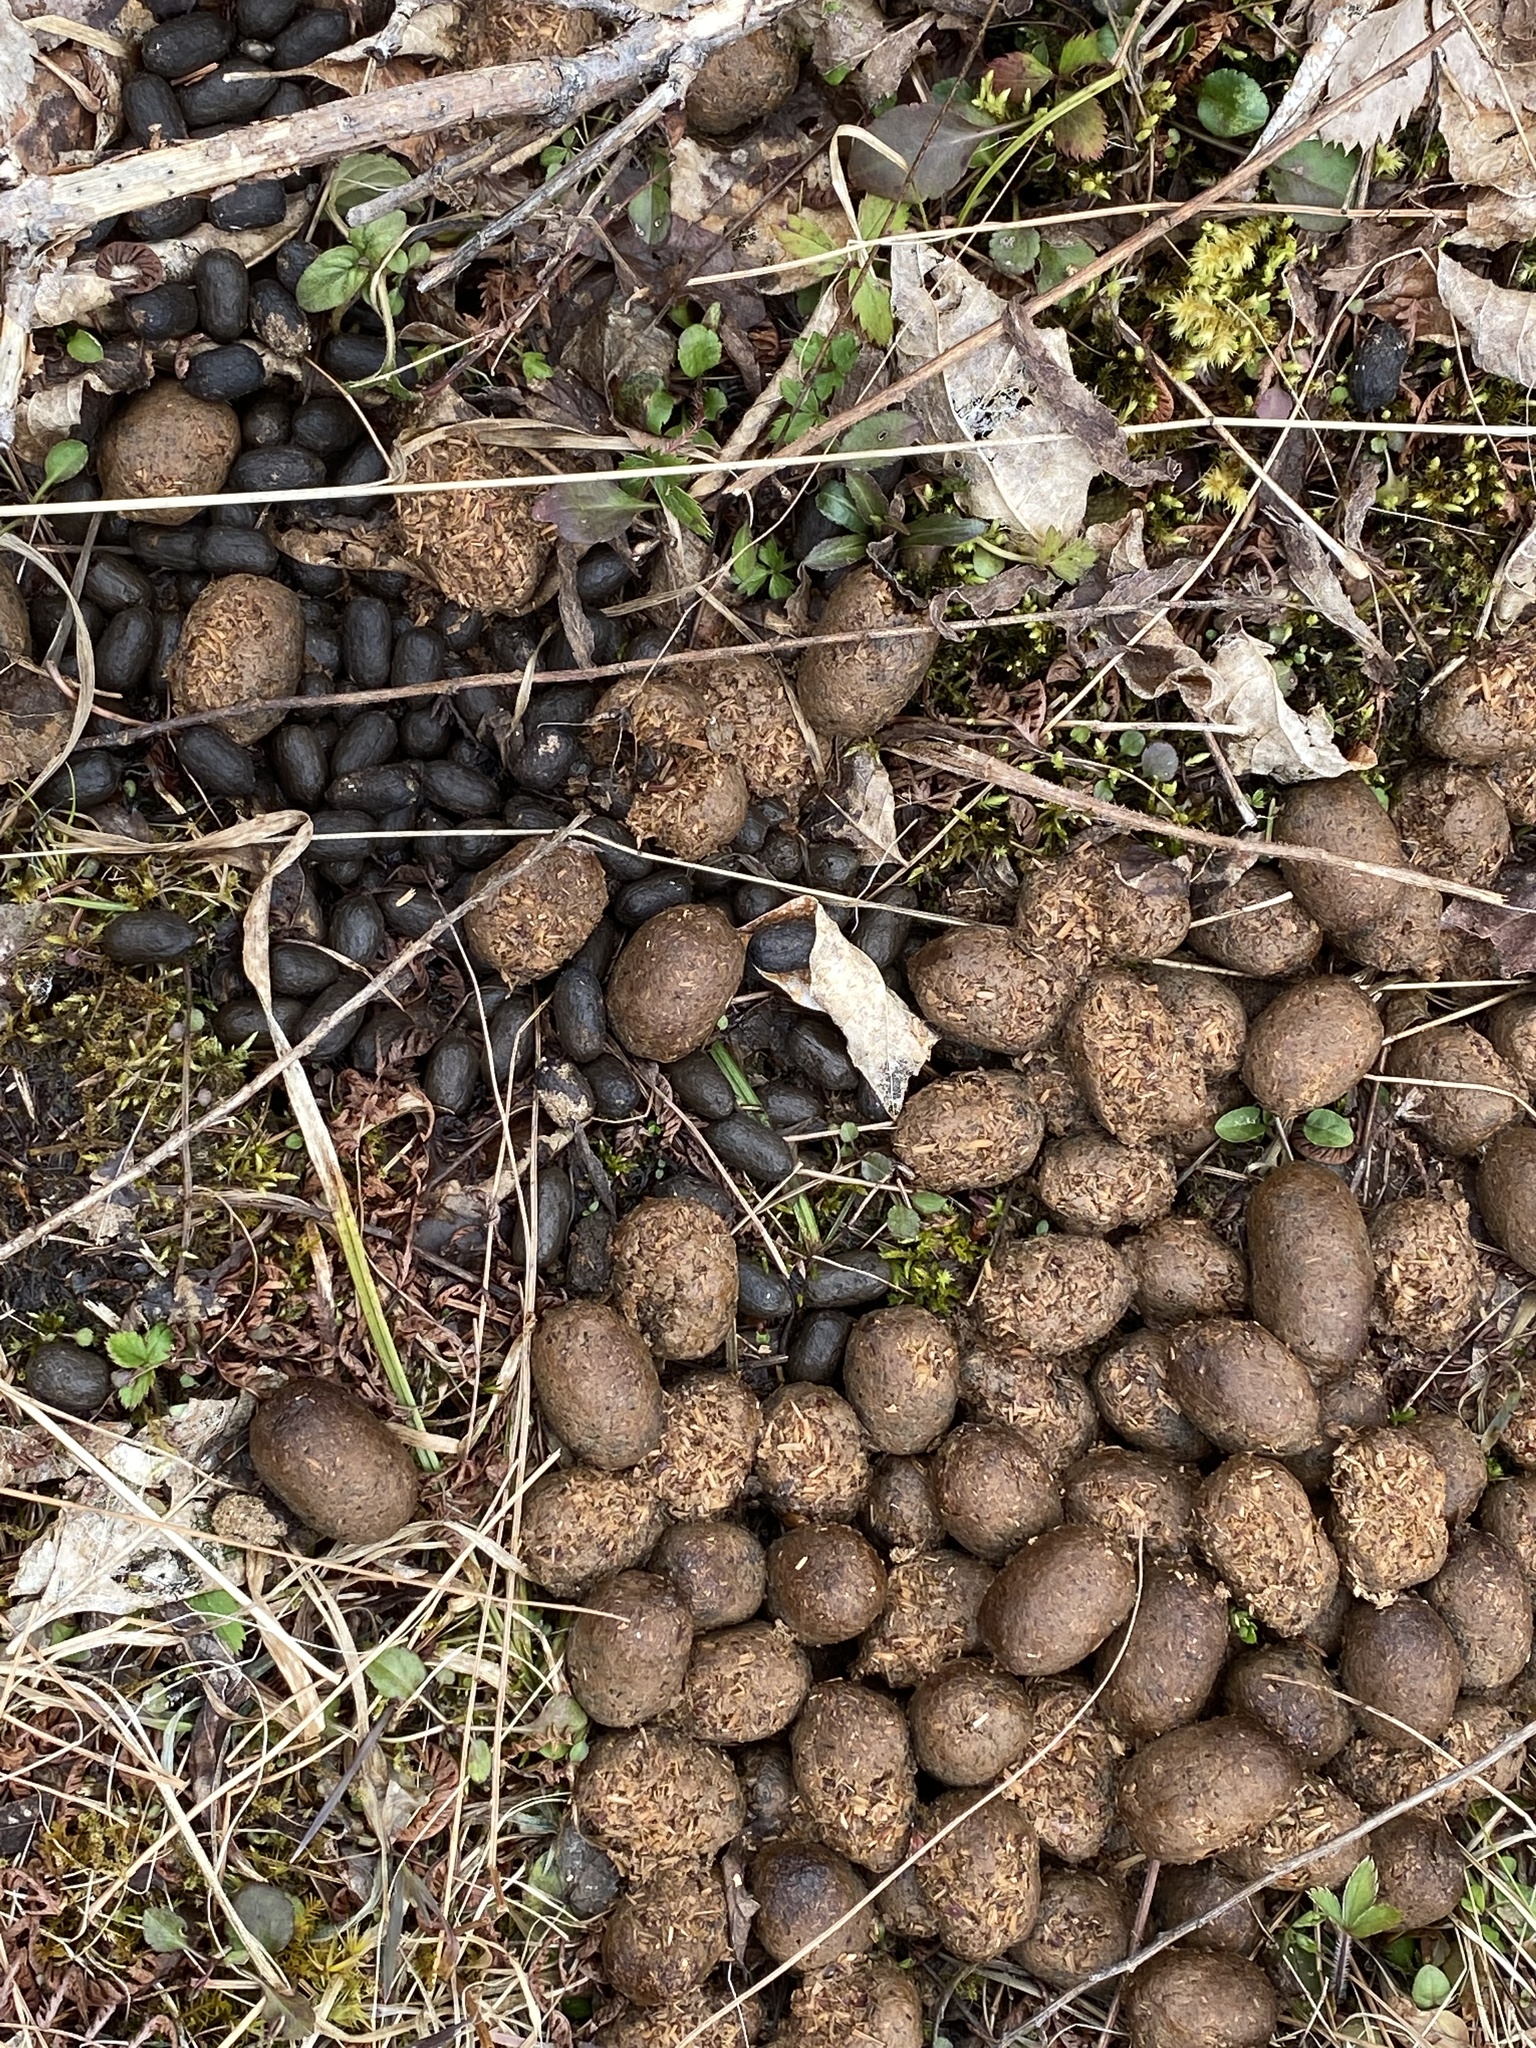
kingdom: Animalia
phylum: Chordata
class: Mammalia
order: Artiodactyla
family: Cervidae
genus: Alces
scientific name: Alces alces
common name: Moose
